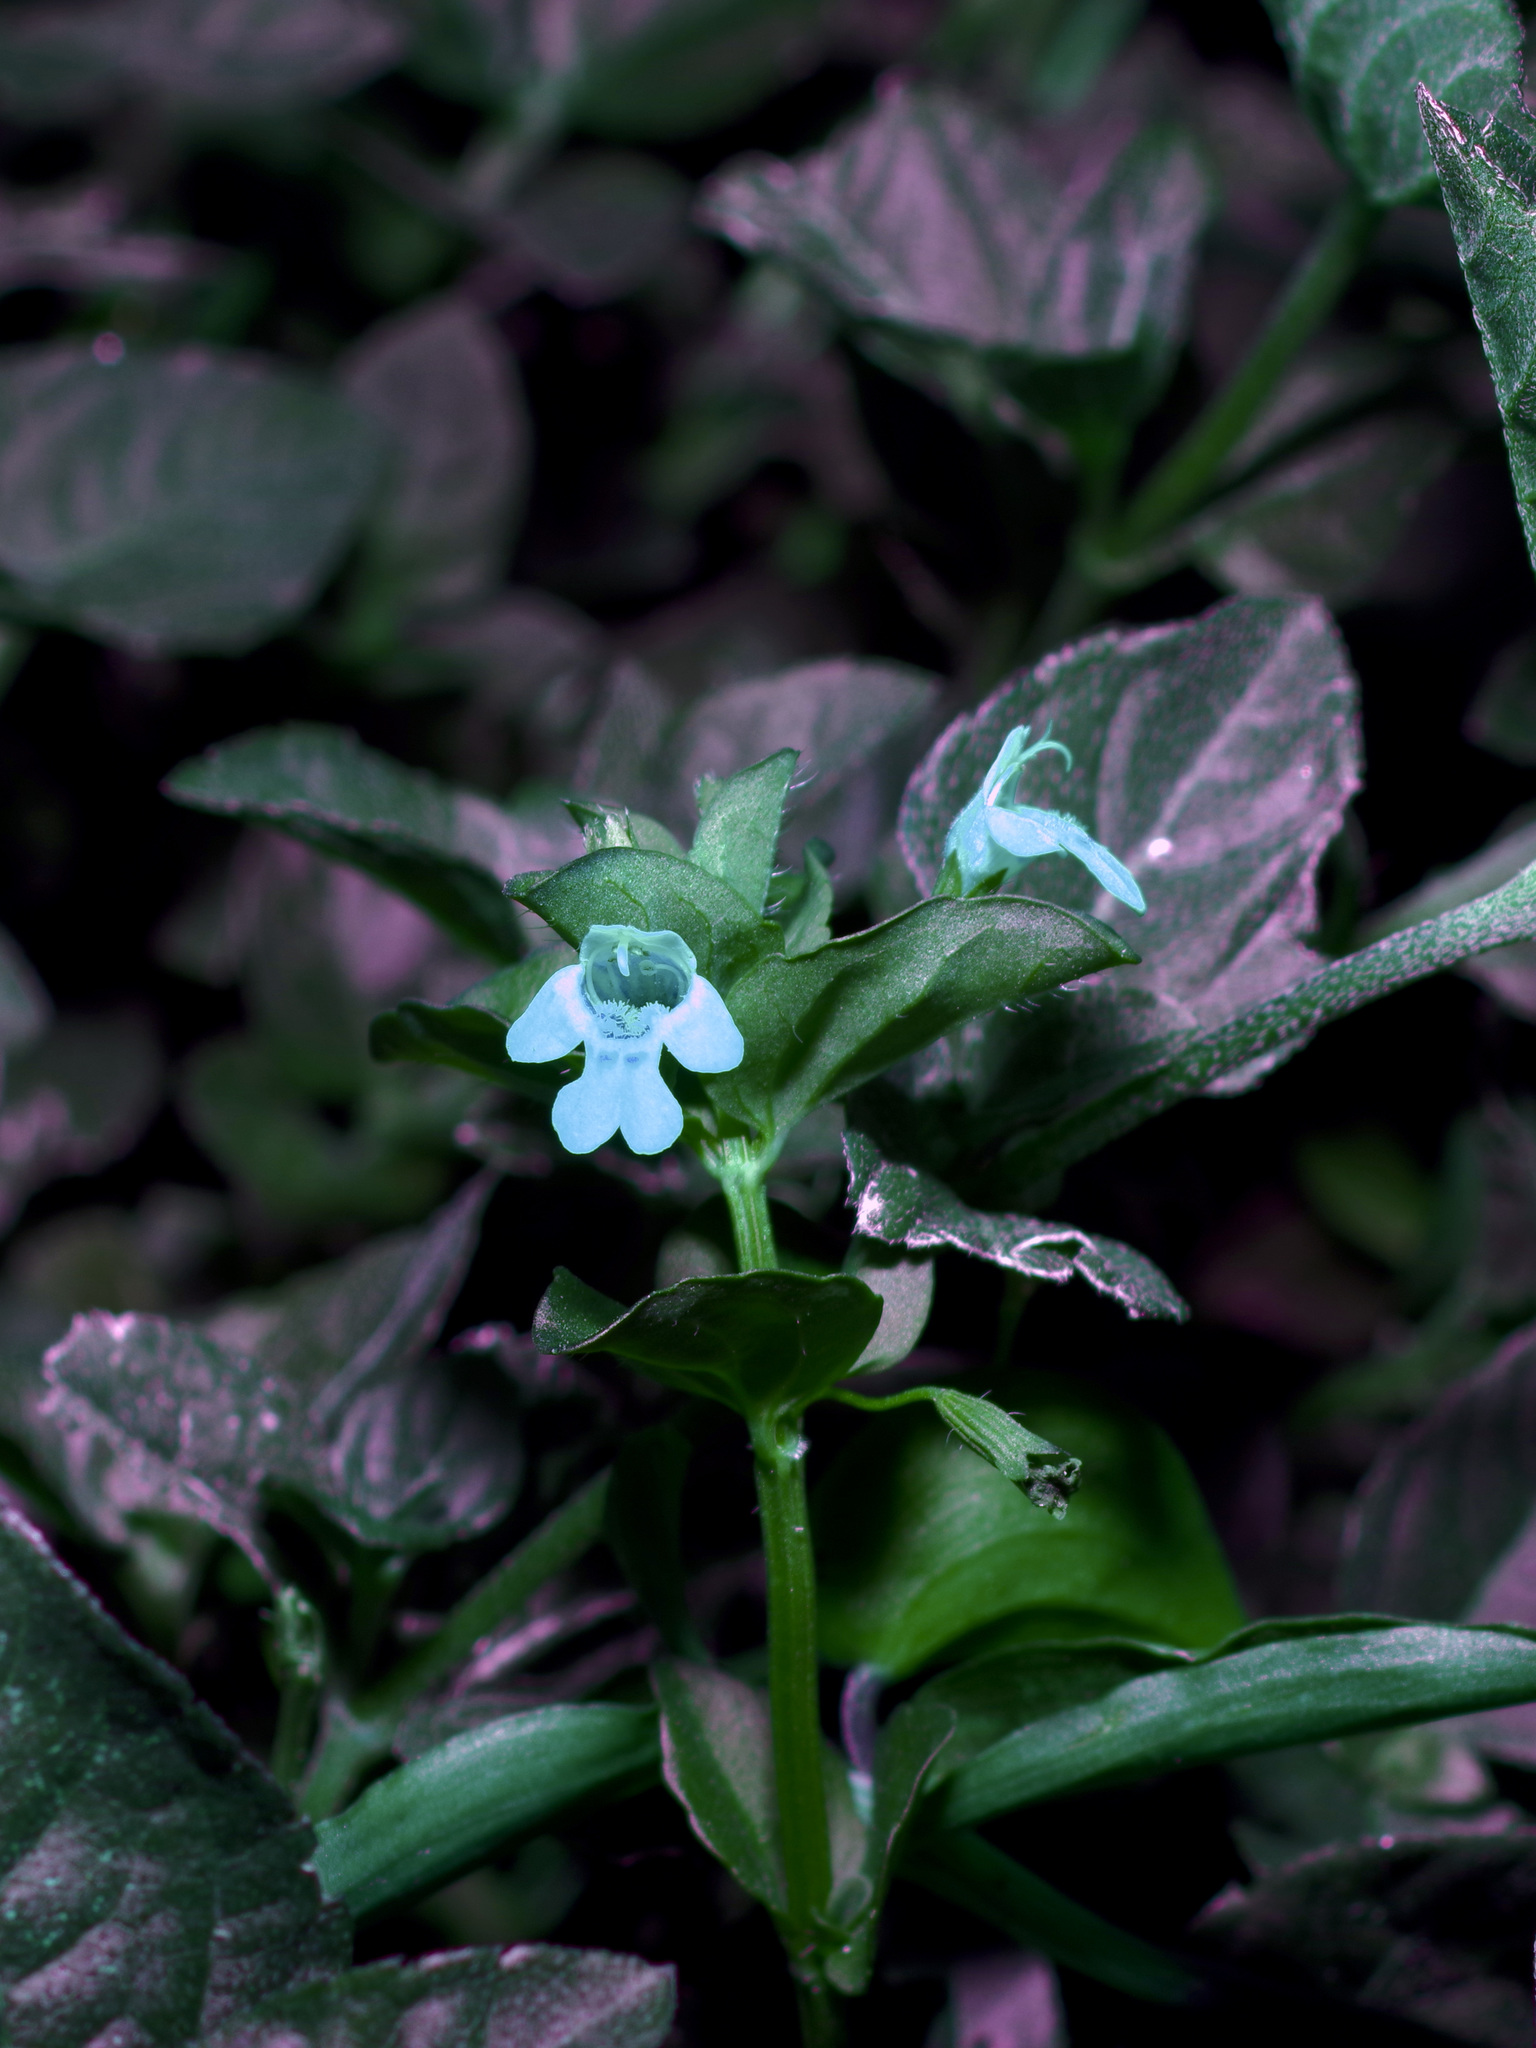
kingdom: Plantae
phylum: Tracheophyta
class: Magnoliopsida
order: Lamiales
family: Lamiaceae
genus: Clinopodium
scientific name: Clinopodium brownei
